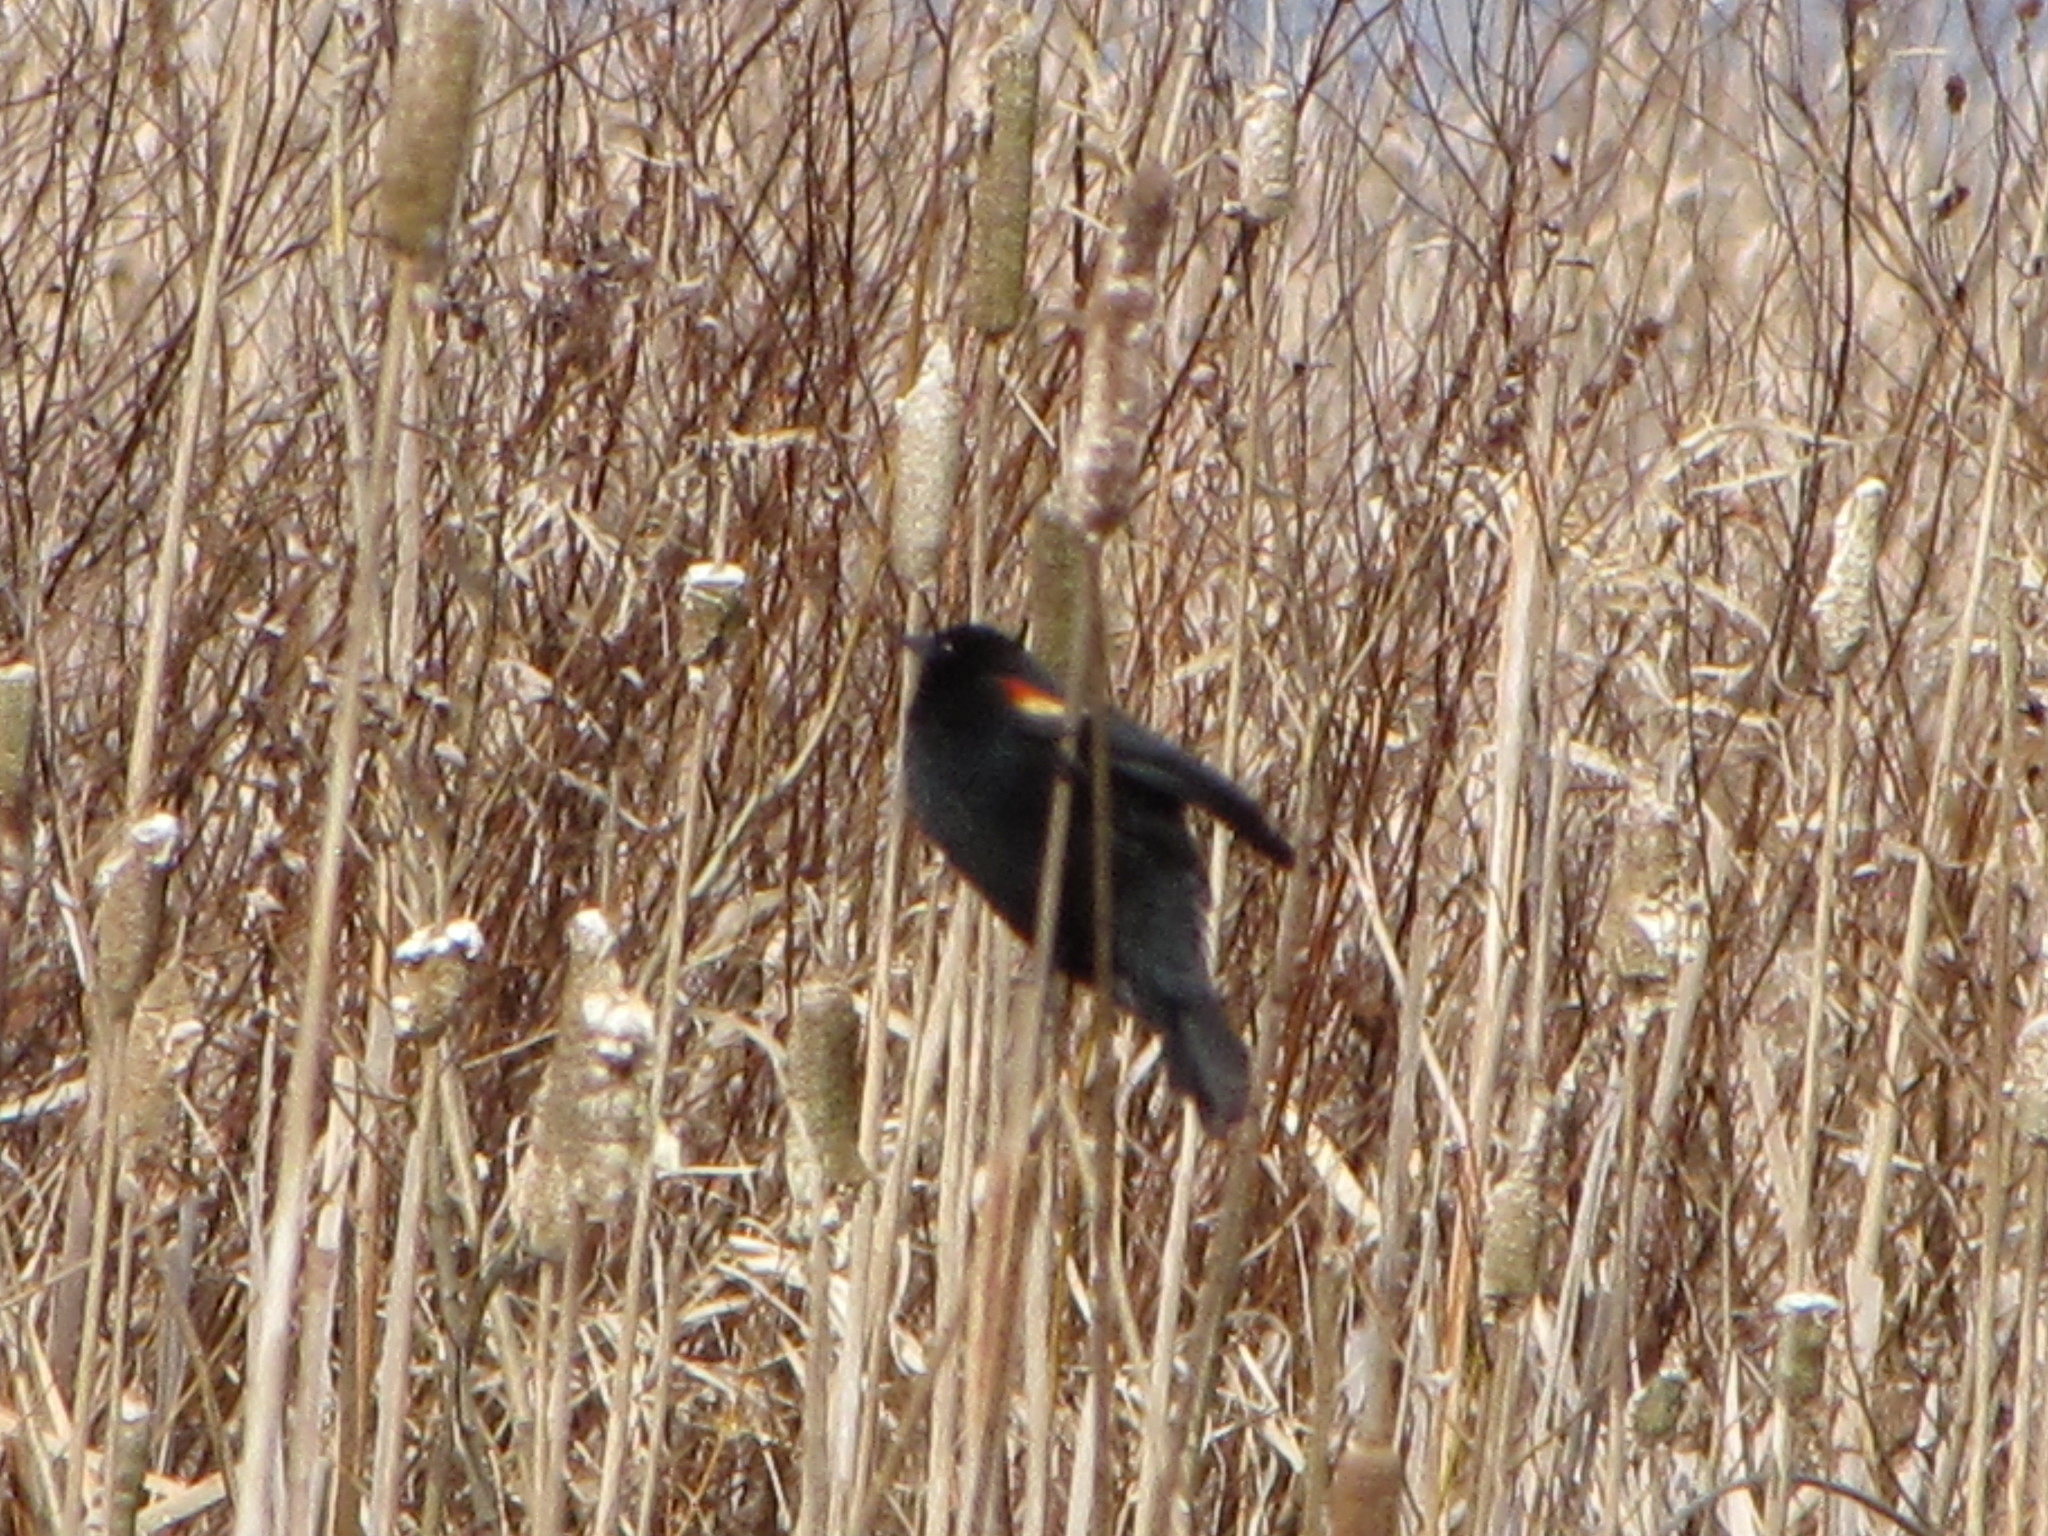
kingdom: Animalia
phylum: Chordata
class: Aves
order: Passeriformes
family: Icteridae
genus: Agelaius
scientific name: Agelaius phoeniceus
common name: Red-winged blackbird
